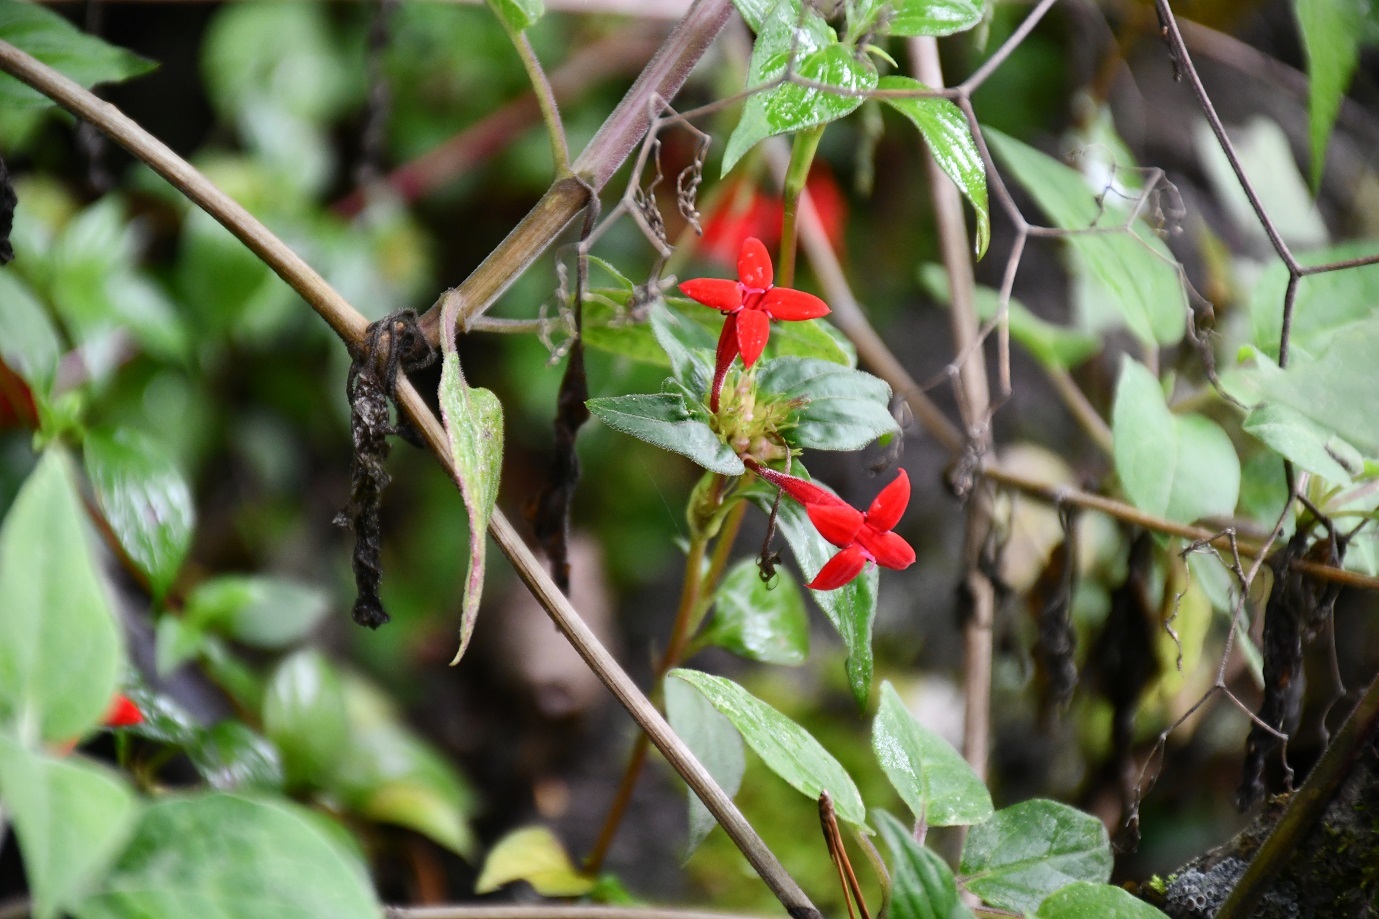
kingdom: Plantae
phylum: Tracheophyta
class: Magnoliopsida
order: Gentianales
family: Rubiaceae
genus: Crusea
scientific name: Crusea coccinea
